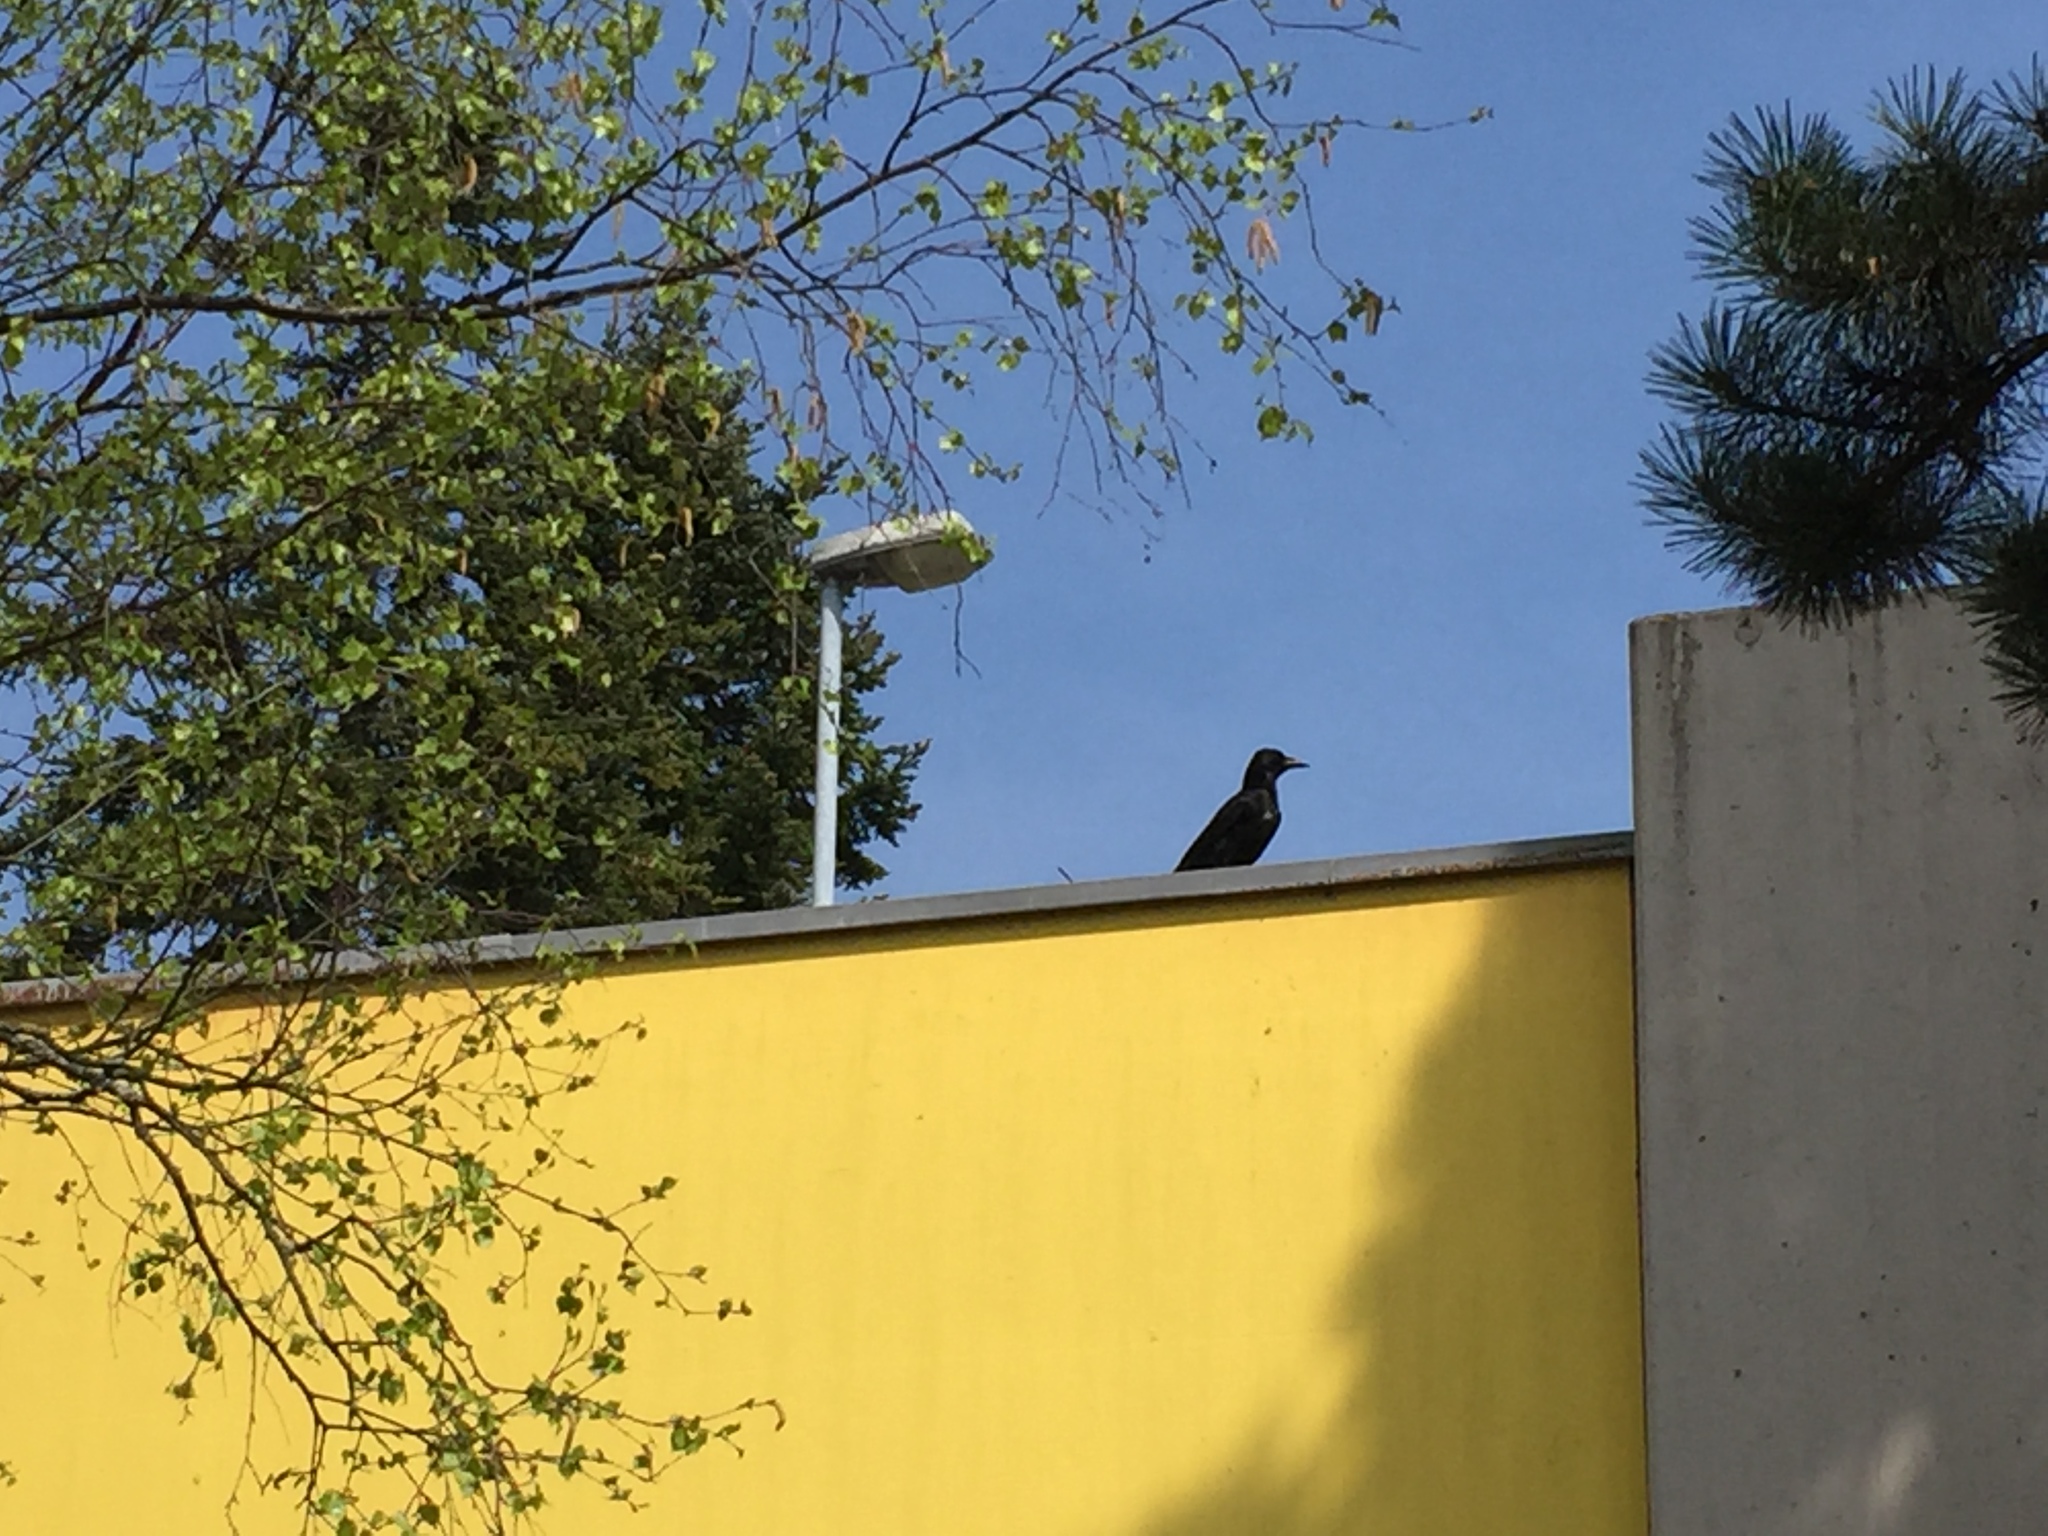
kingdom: Animalia
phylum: Chordata
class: Aves
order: Passeriformes
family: Corvidae
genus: Corvus
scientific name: Corvus corone
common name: Carrion crow
